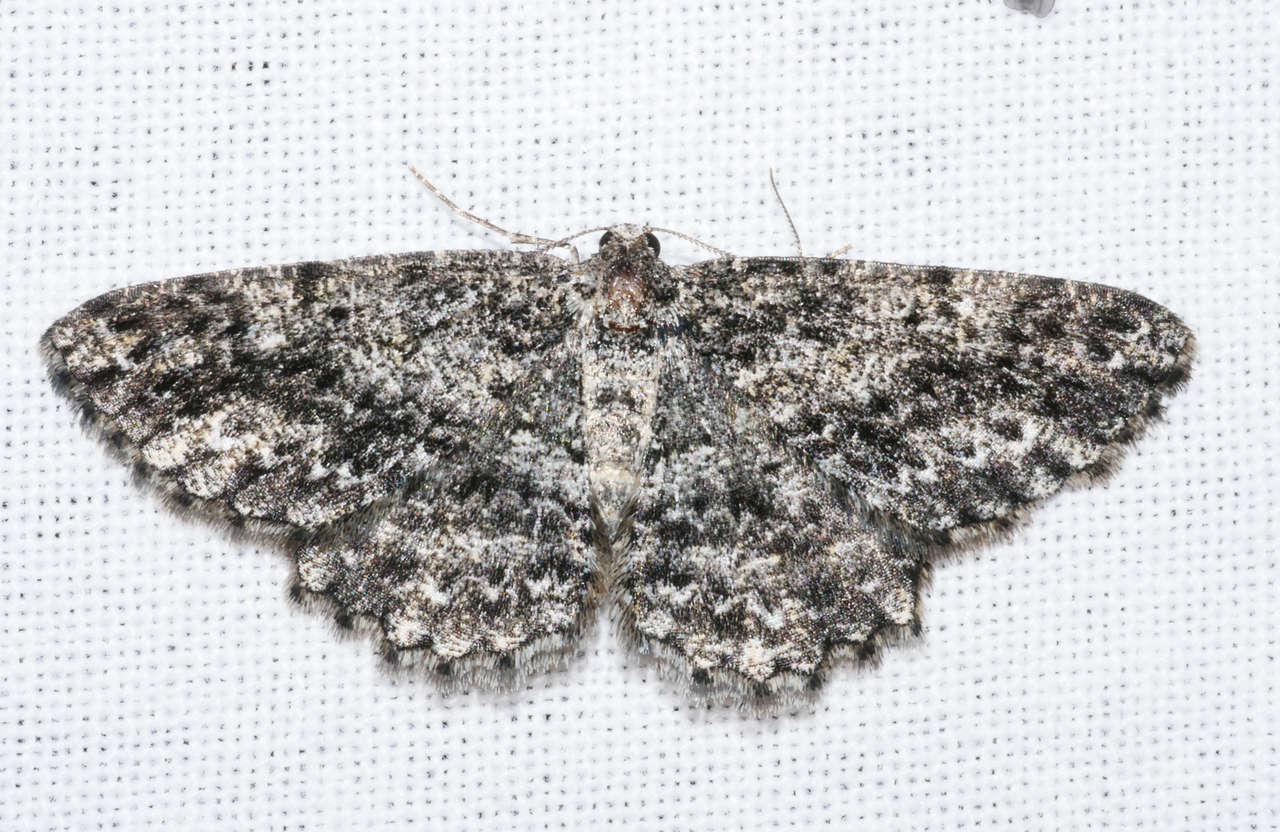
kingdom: Animalia
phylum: Arthropoda
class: Insecta
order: Lepidoptera
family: Geometridae
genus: Thallogama
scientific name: Thallogama nigraria
